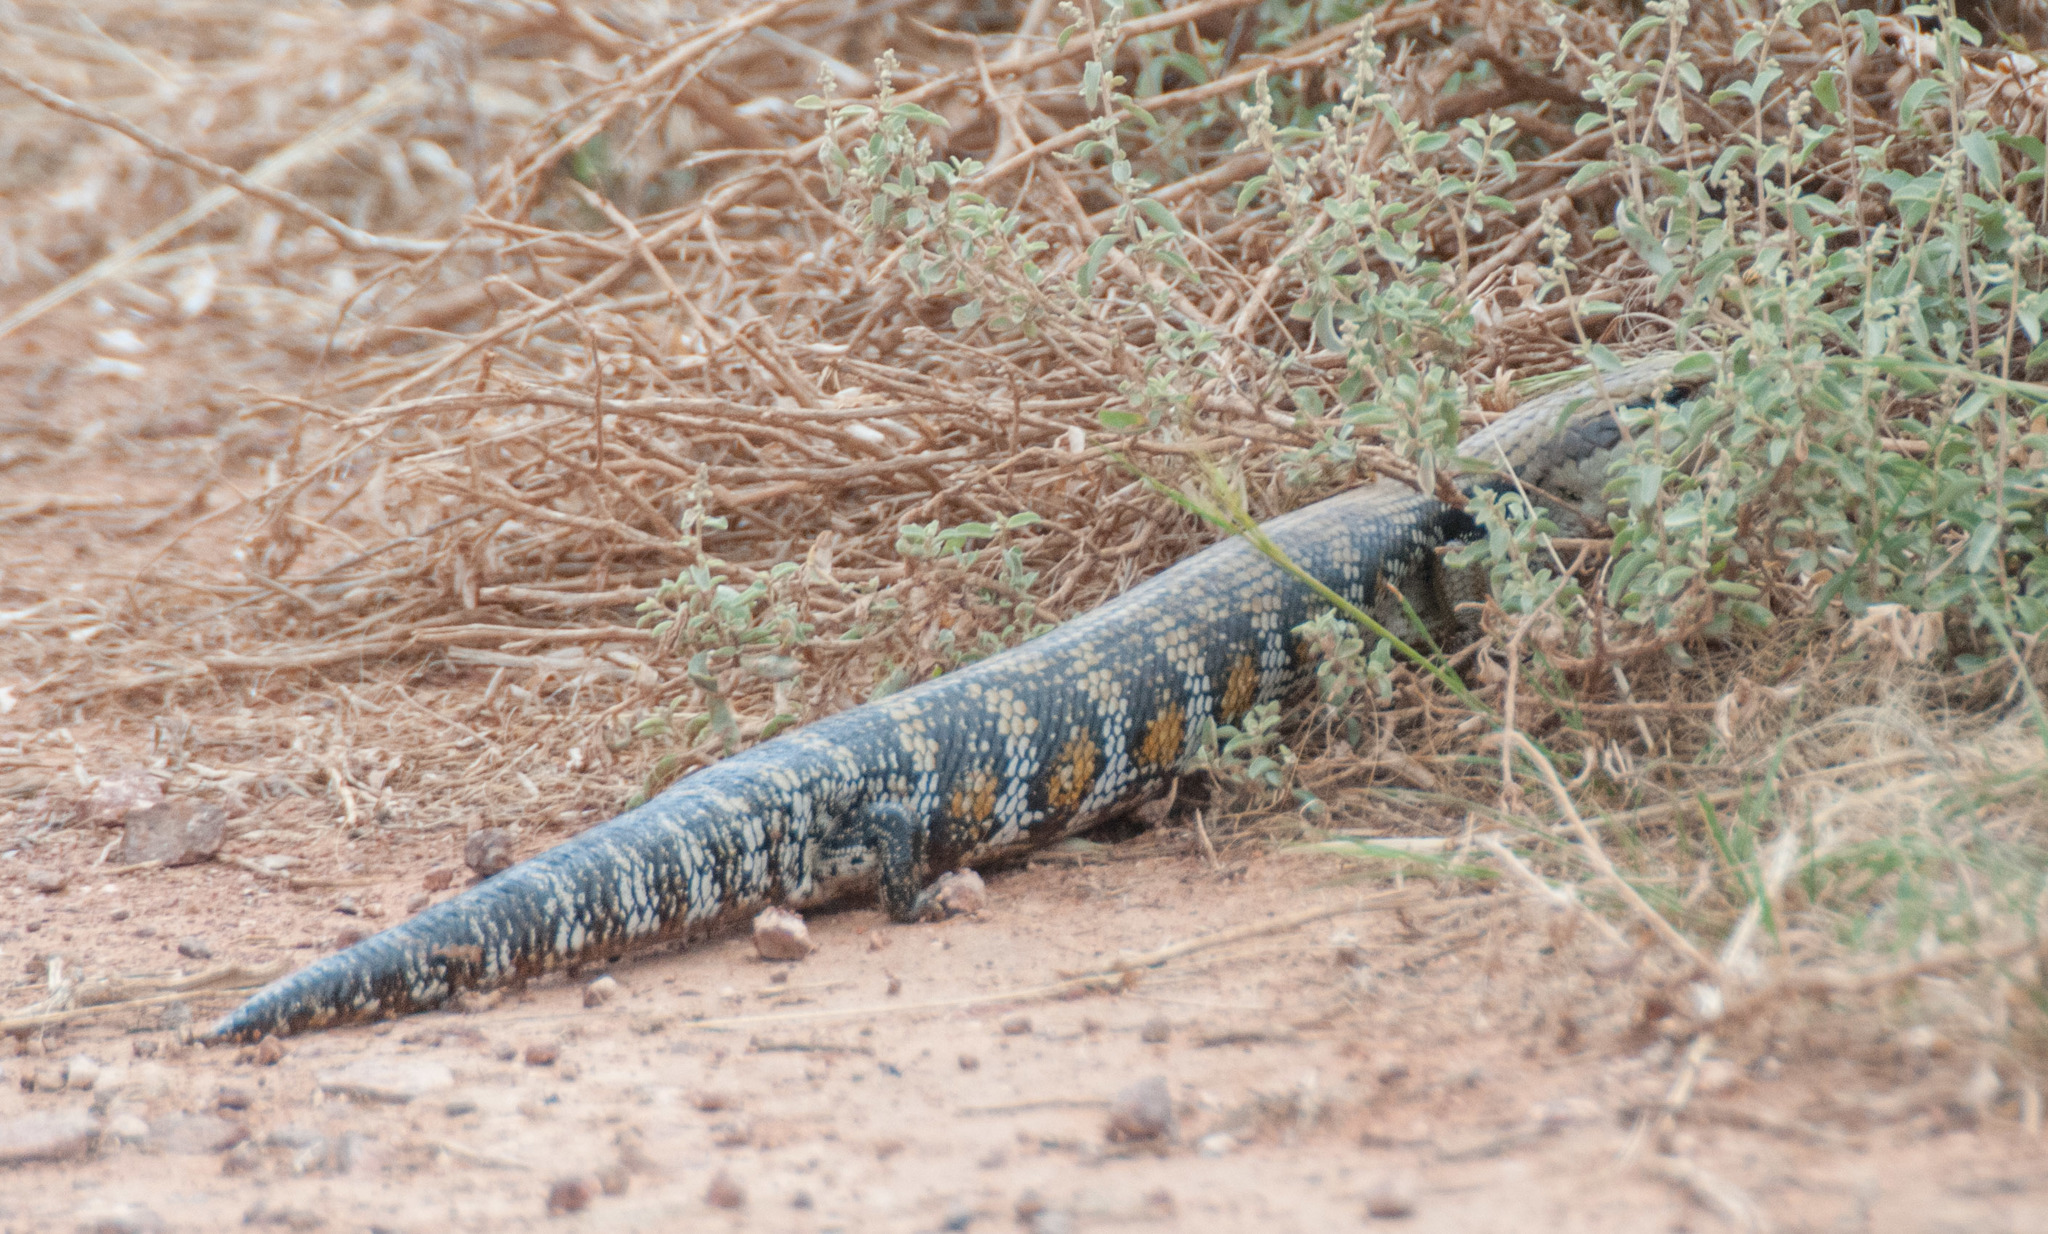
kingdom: Animalia
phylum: Chordata
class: Squamata
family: Scincidae
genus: Tiliqua
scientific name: Tiliqua scincoides
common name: Common bluetongue
